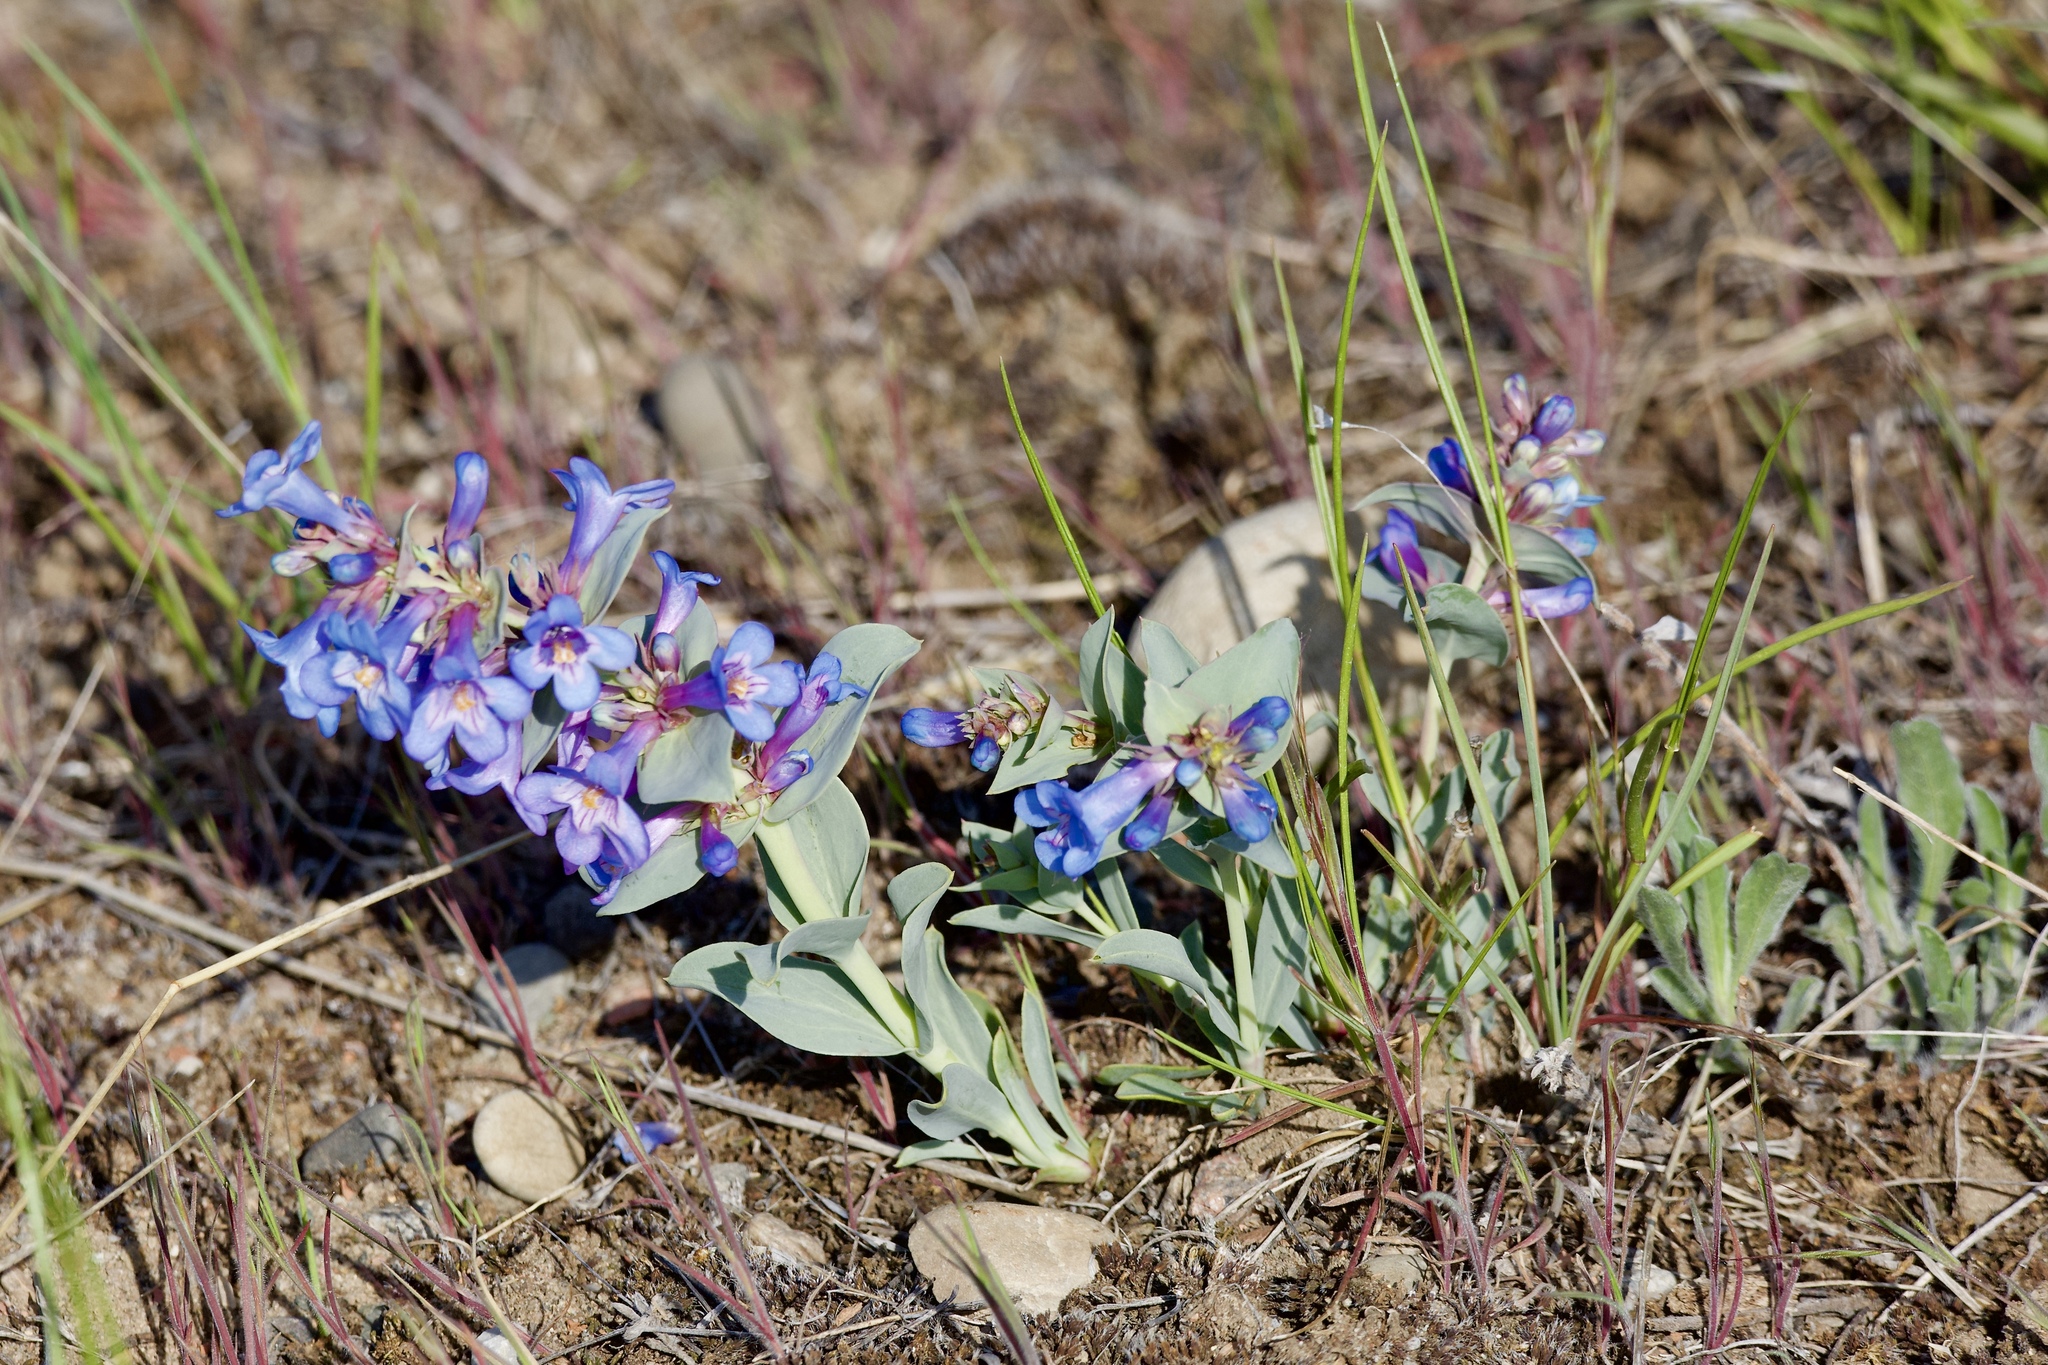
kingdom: Plantae
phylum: Tracheophyta
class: Magnoliopsida
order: Lamiales
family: Plantaginaceae
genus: Penstemon
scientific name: Penstemon nitidus
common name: Shining penstemon
